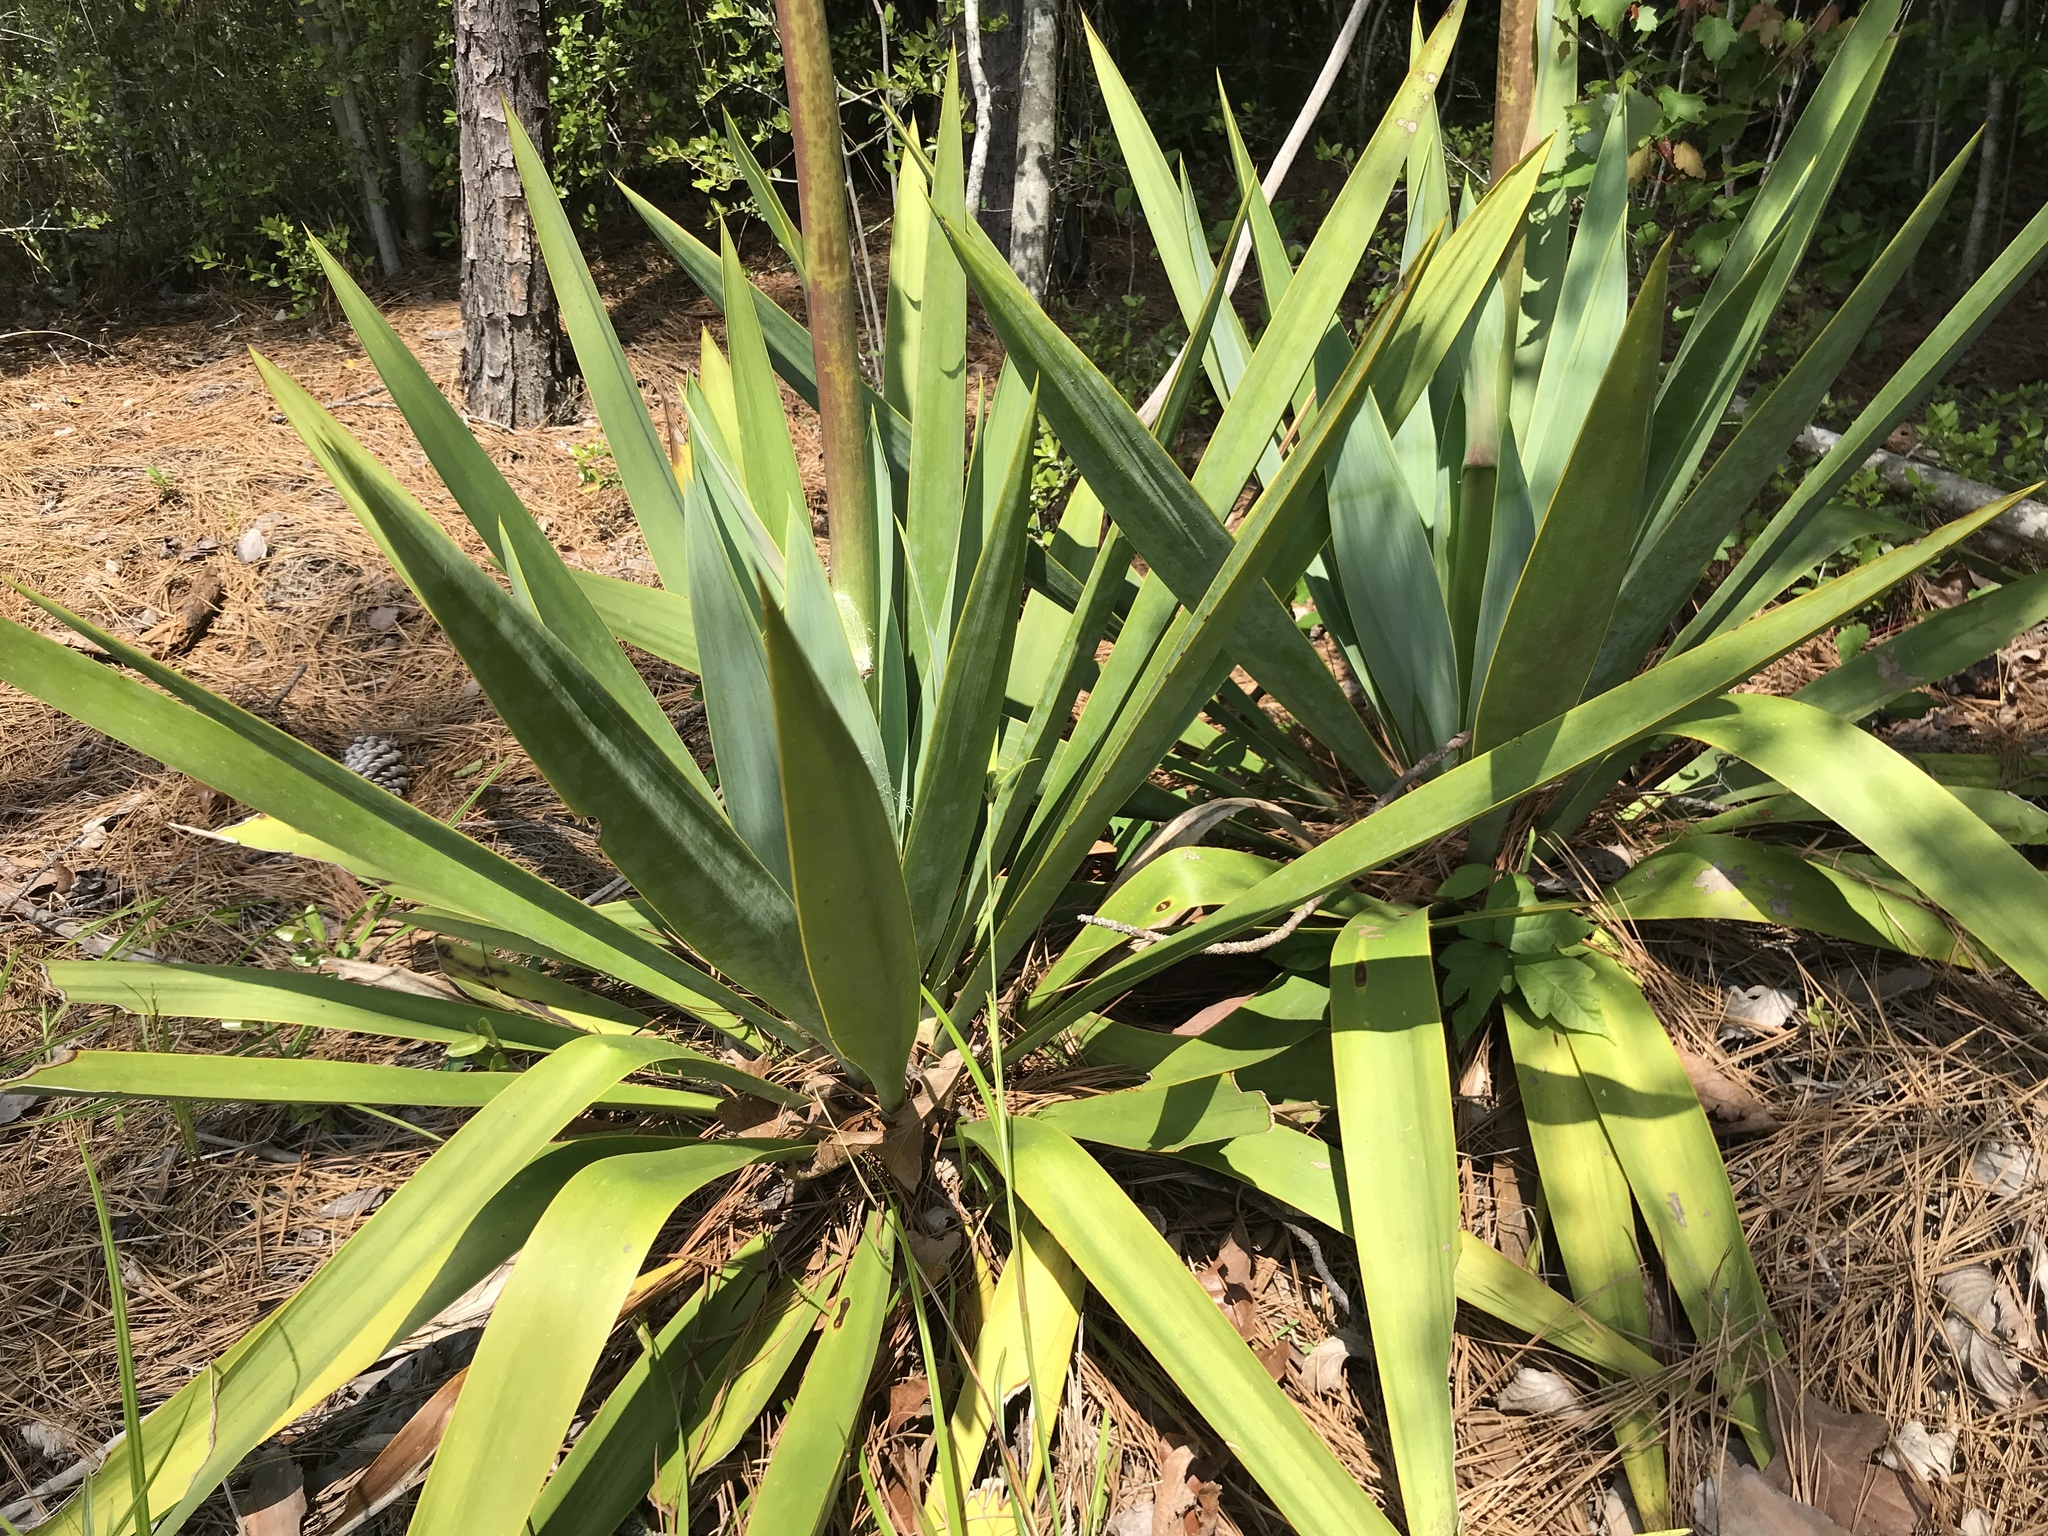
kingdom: Plantae
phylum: Tracheophyta
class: Liliopsida
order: Asparagales
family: Asparagaceae
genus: Yucca
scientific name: Yucca cernua
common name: Nodding yucca
